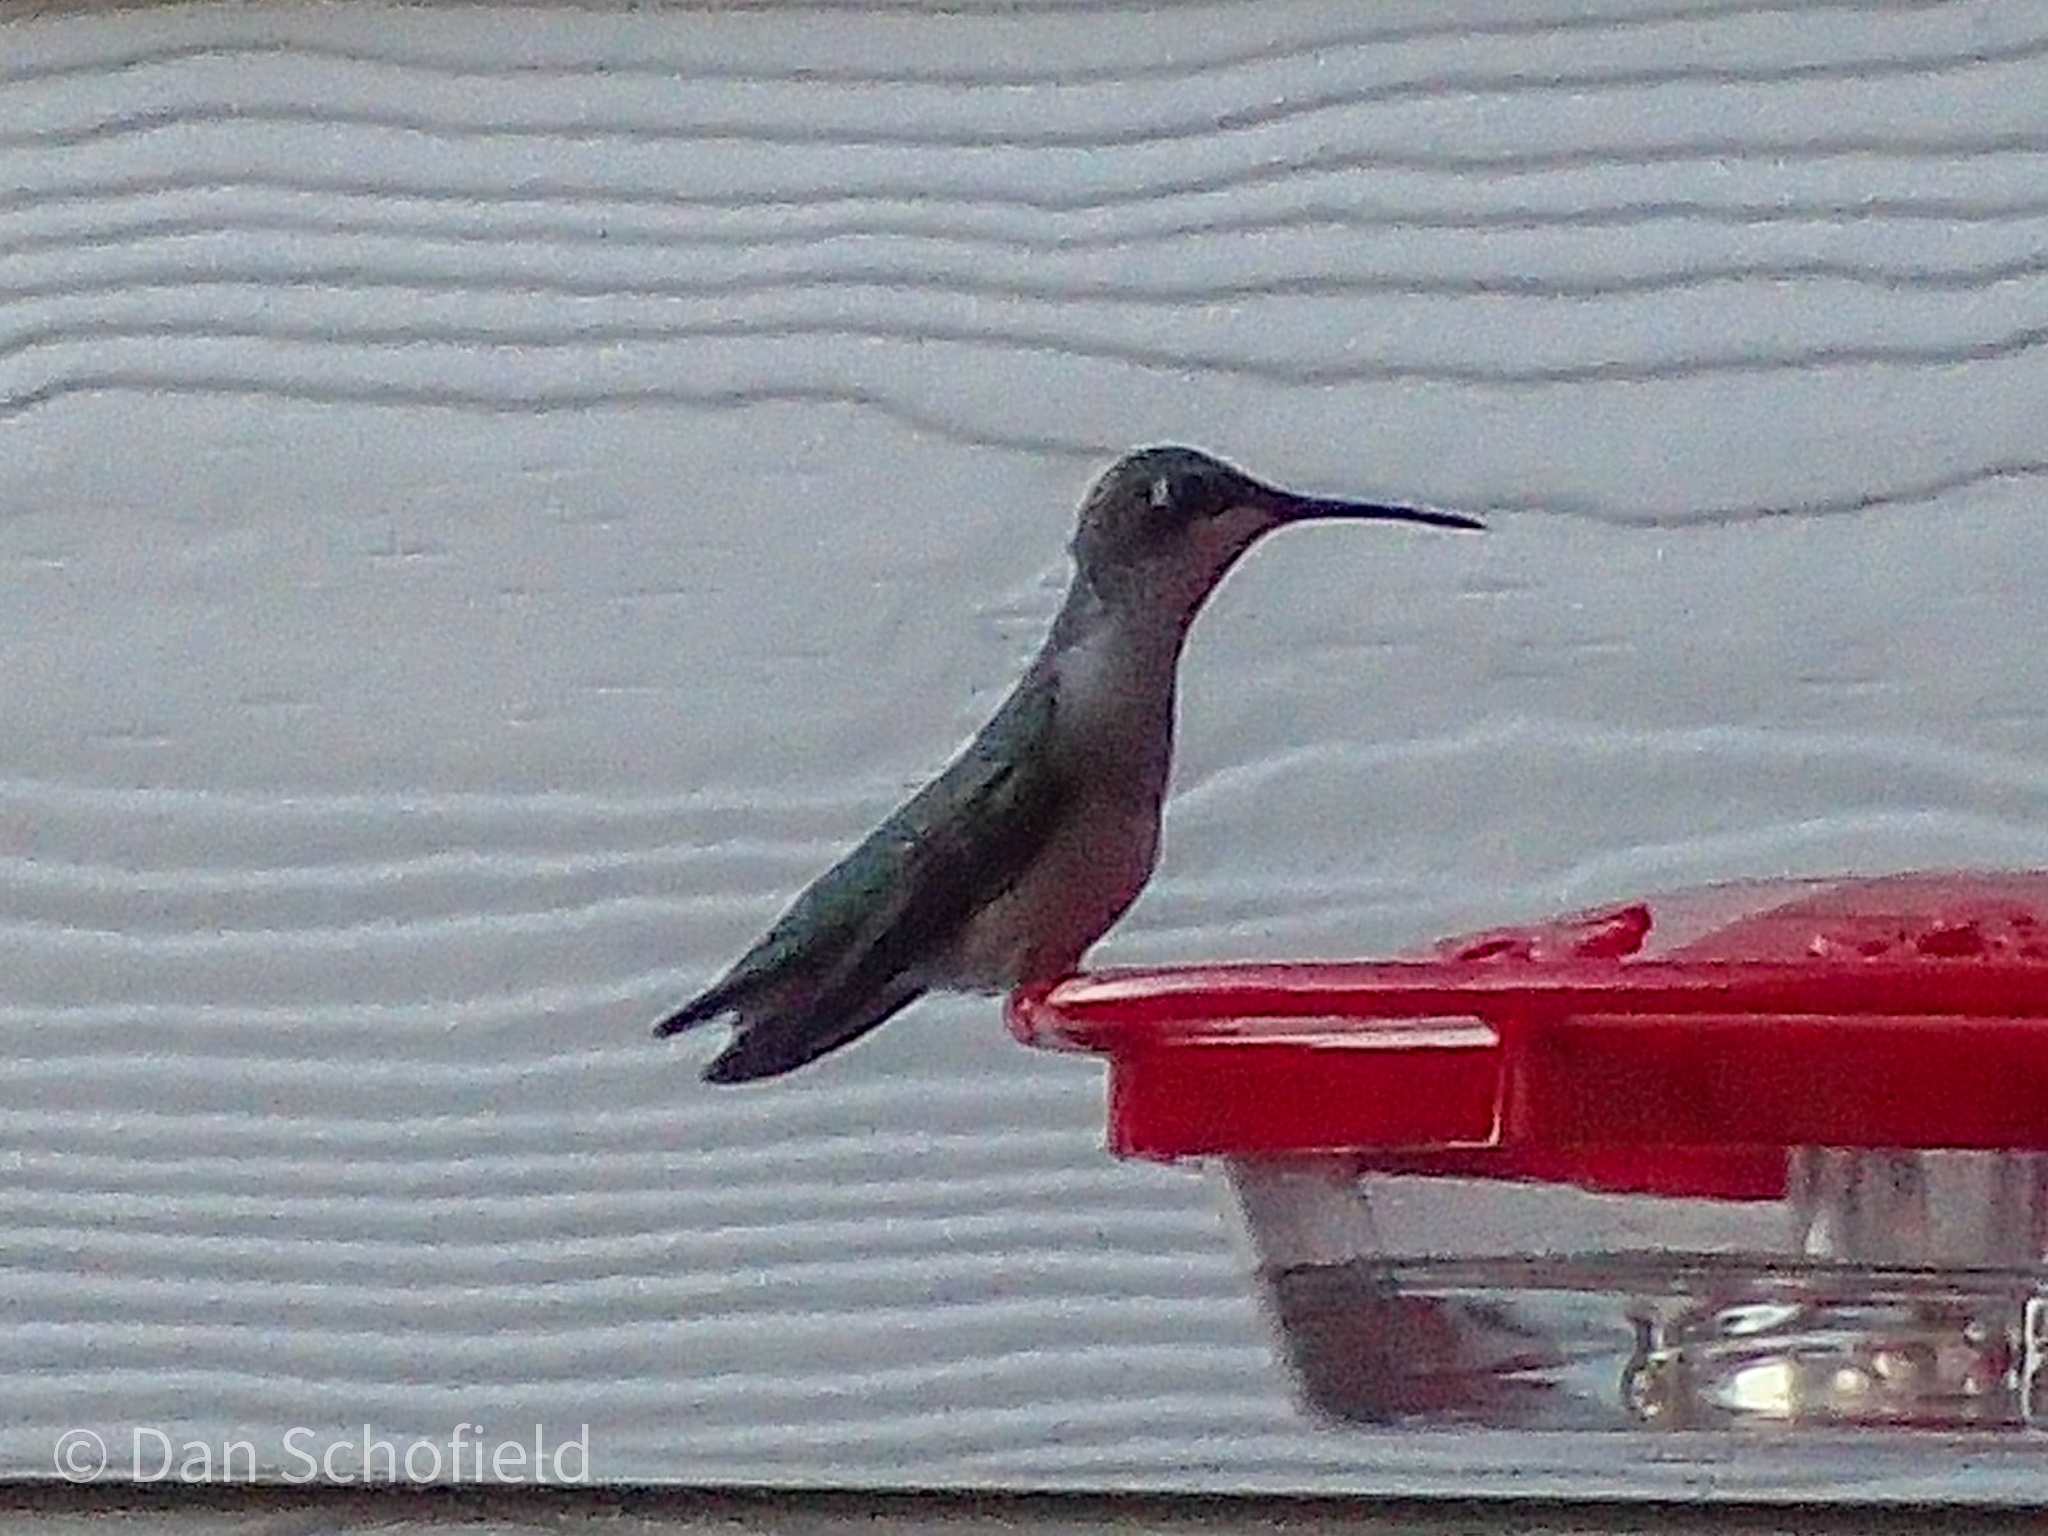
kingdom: Animalia
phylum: Chordata
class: Aves
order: Apodiformes
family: Trochilidae
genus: Archilochus
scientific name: Archilochus colubris
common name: Ruby-throated hummingbird
